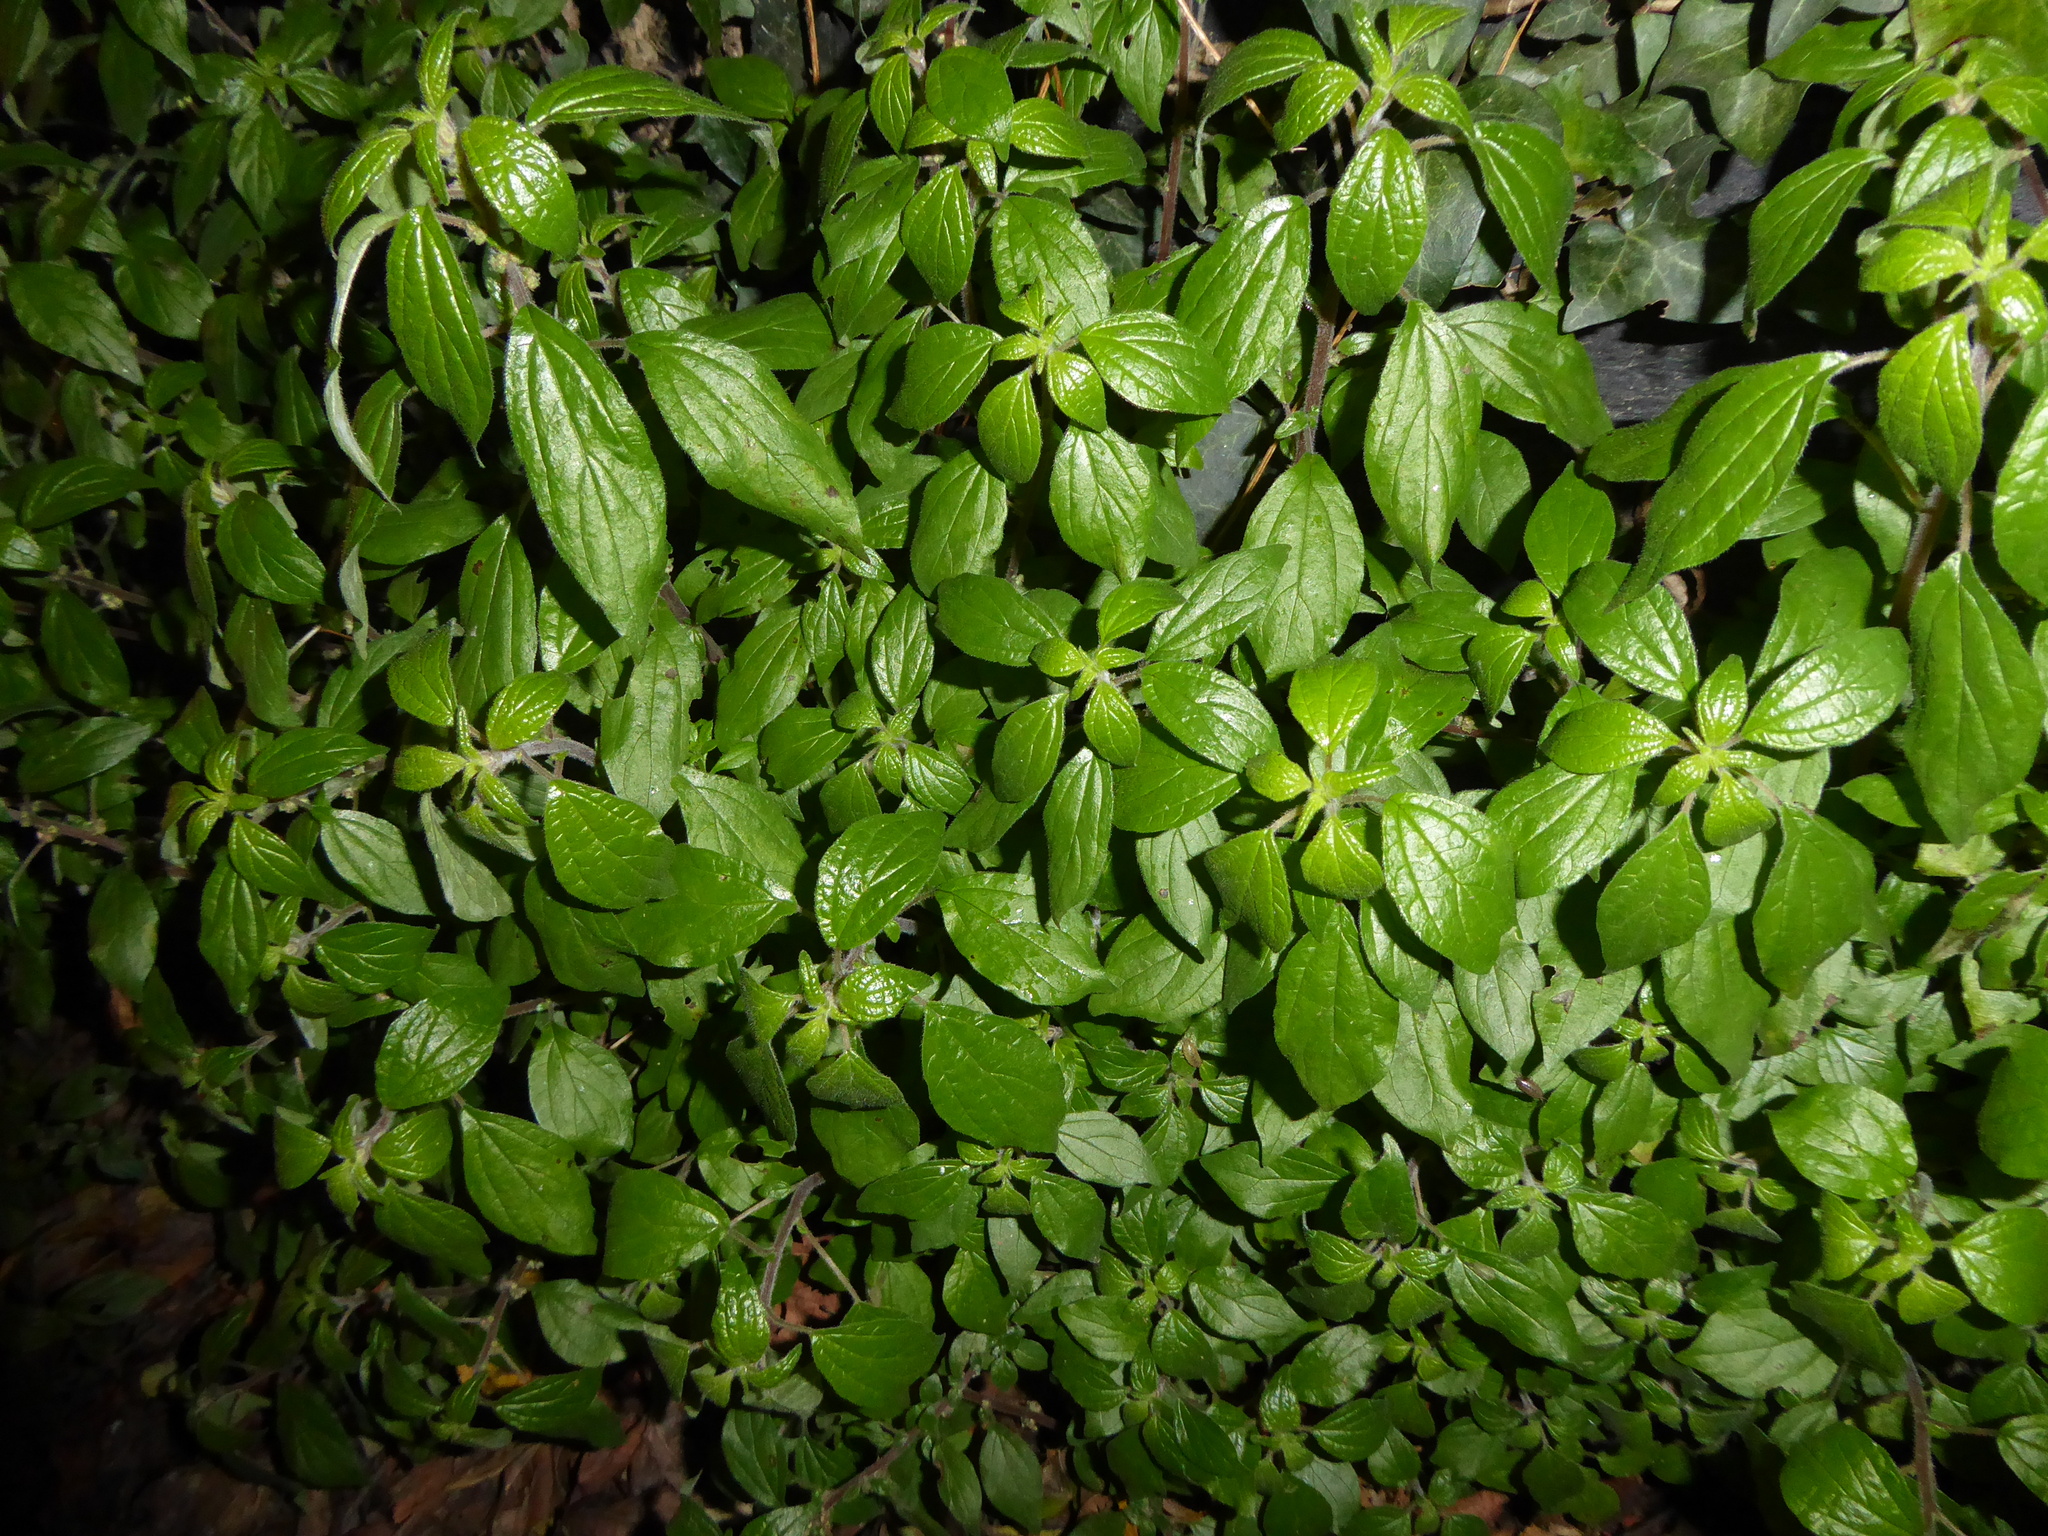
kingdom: Plantae
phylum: Tracheophyta
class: Magnoliopsida
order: Rosales
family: Urticaceae
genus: Parietaria
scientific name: Parietaria judaica
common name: Pellitory-of-the-wall
